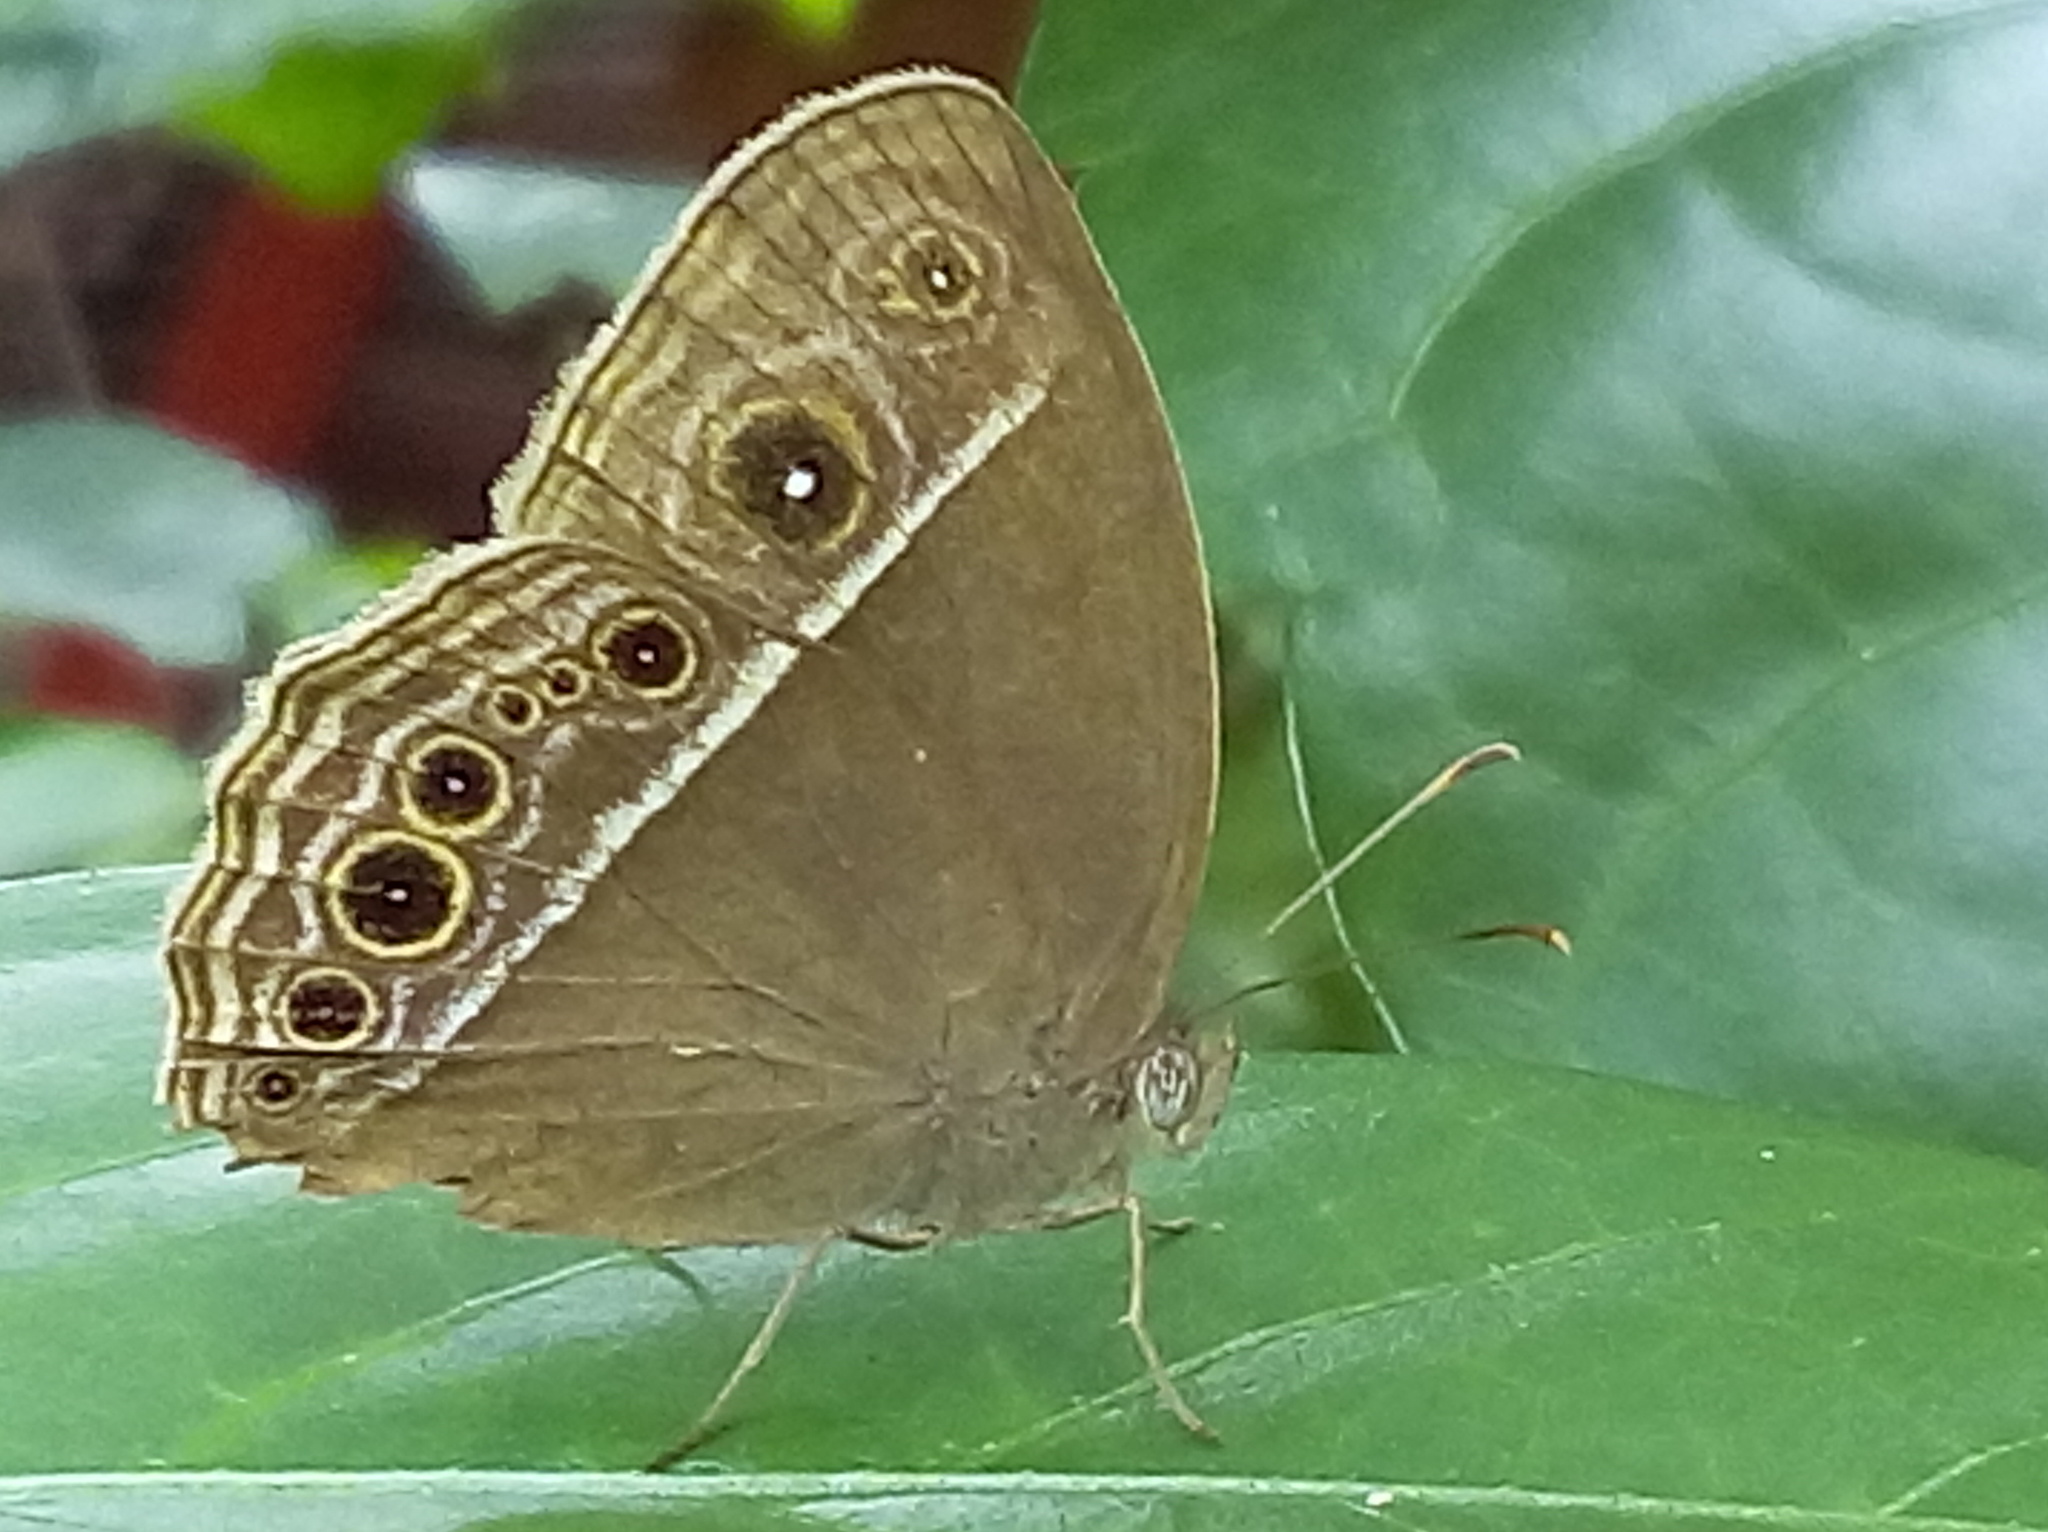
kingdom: Animalia
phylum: Arthropoda
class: Insecta
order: Lepidoptera
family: Nymphalidae
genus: Mycalesis
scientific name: Mycalesis mineus
